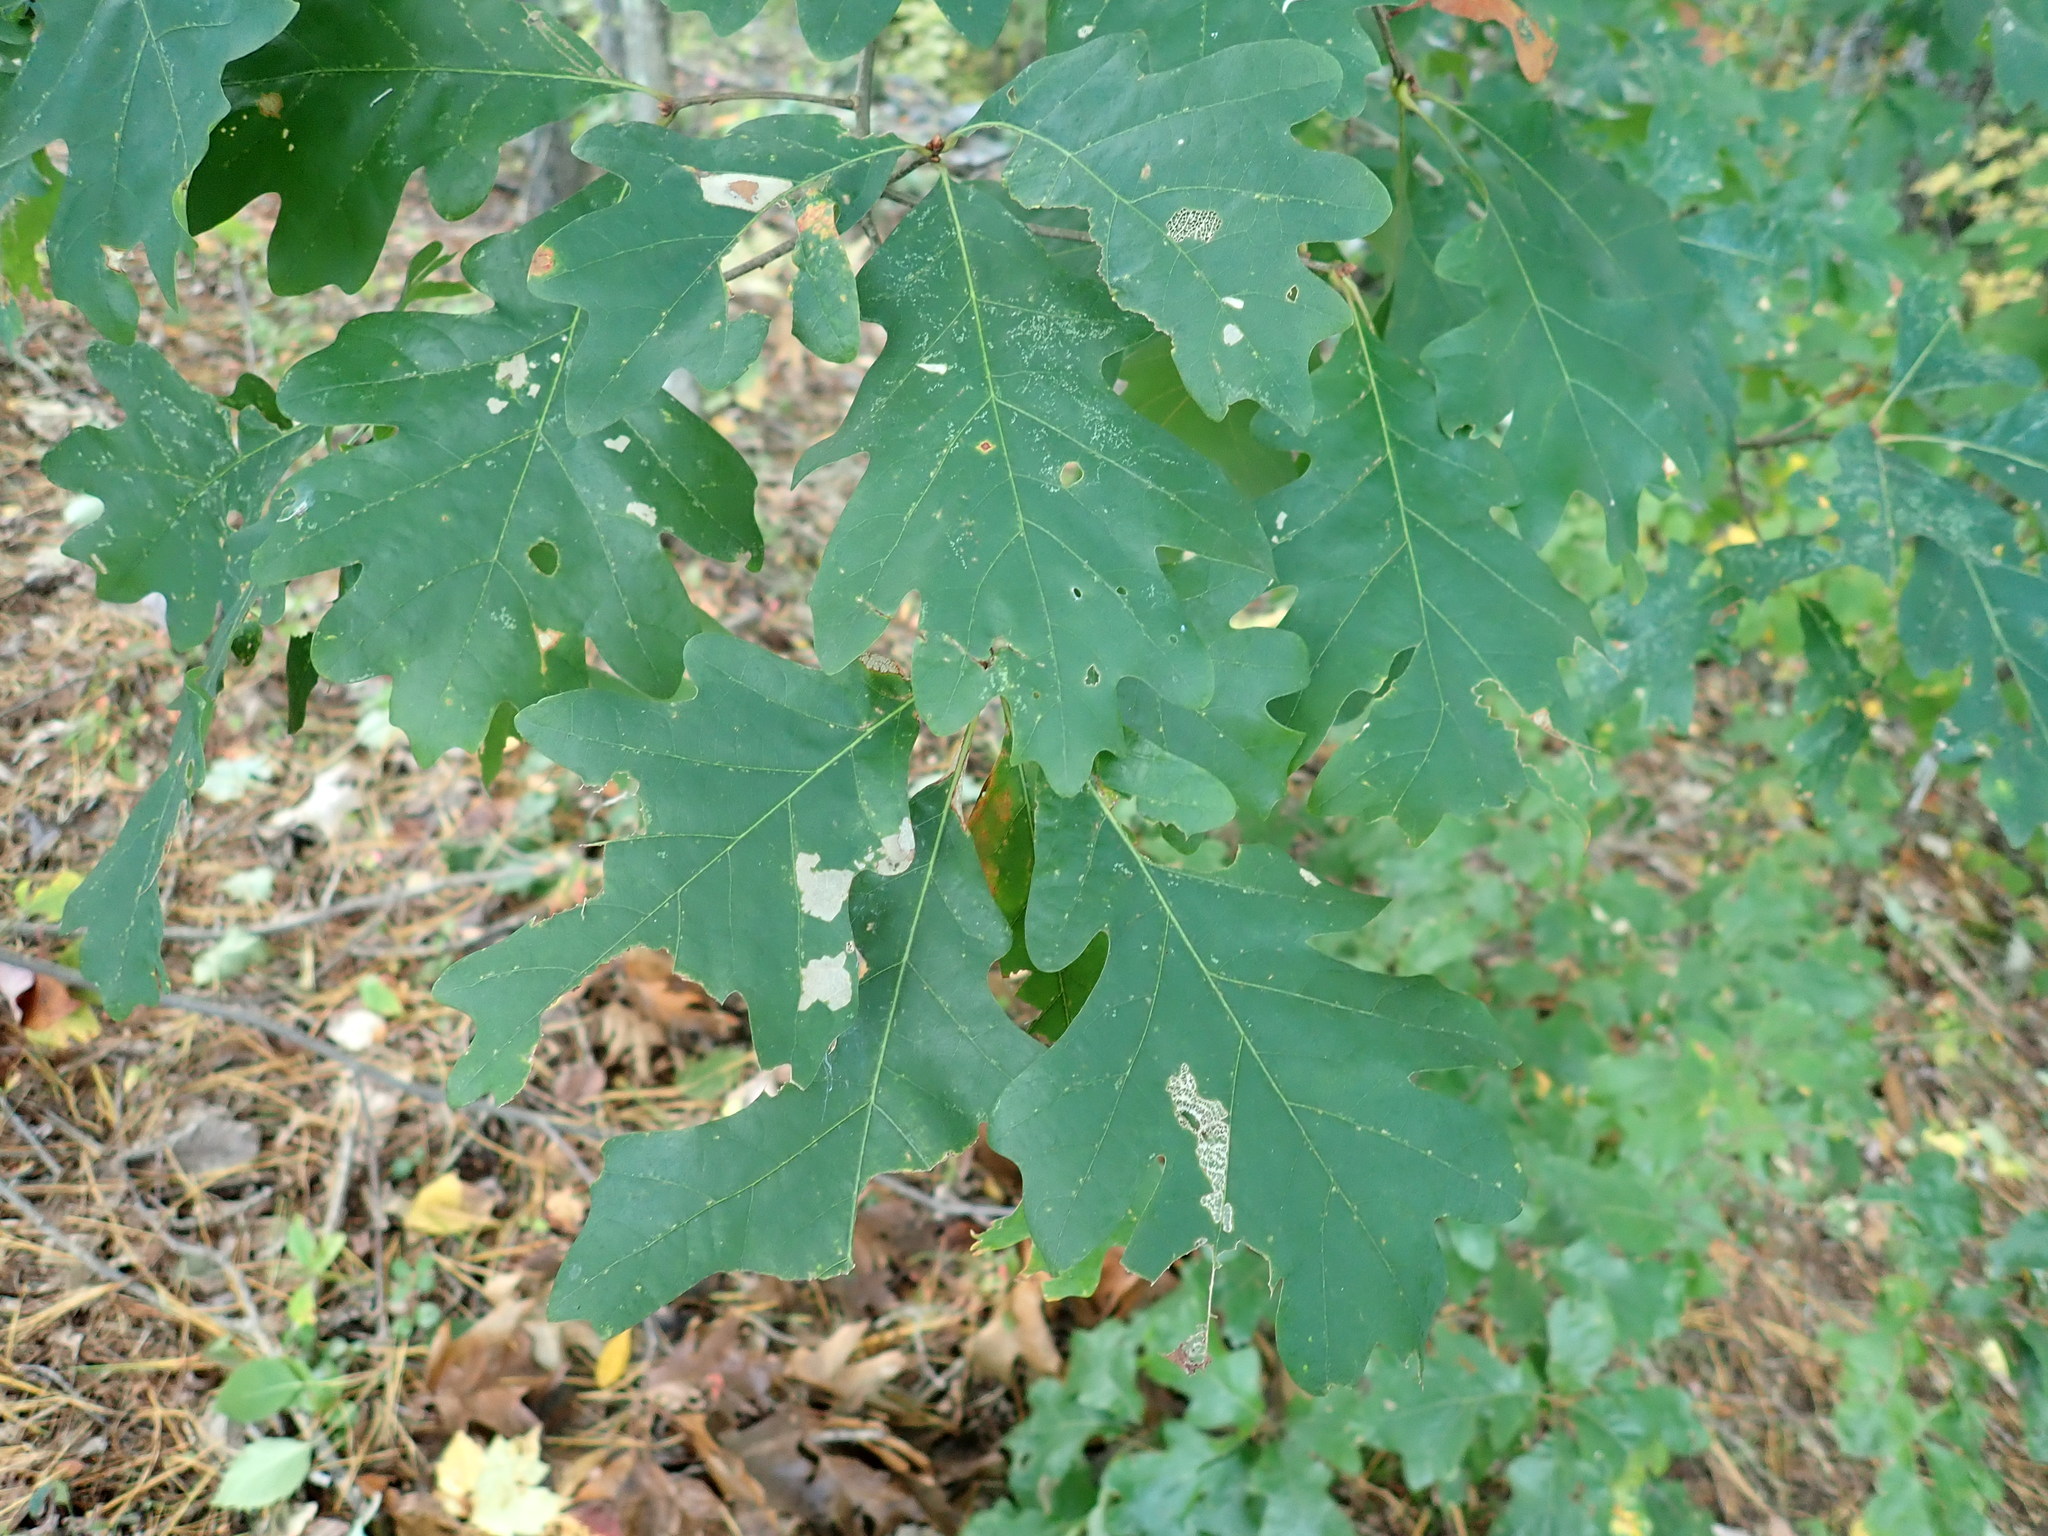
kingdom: Plantae
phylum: Tracheophyta
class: Magnoliopsida
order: Fagales
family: Fagaceae
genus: Quercus
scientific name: Quercus alba
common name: White oak
